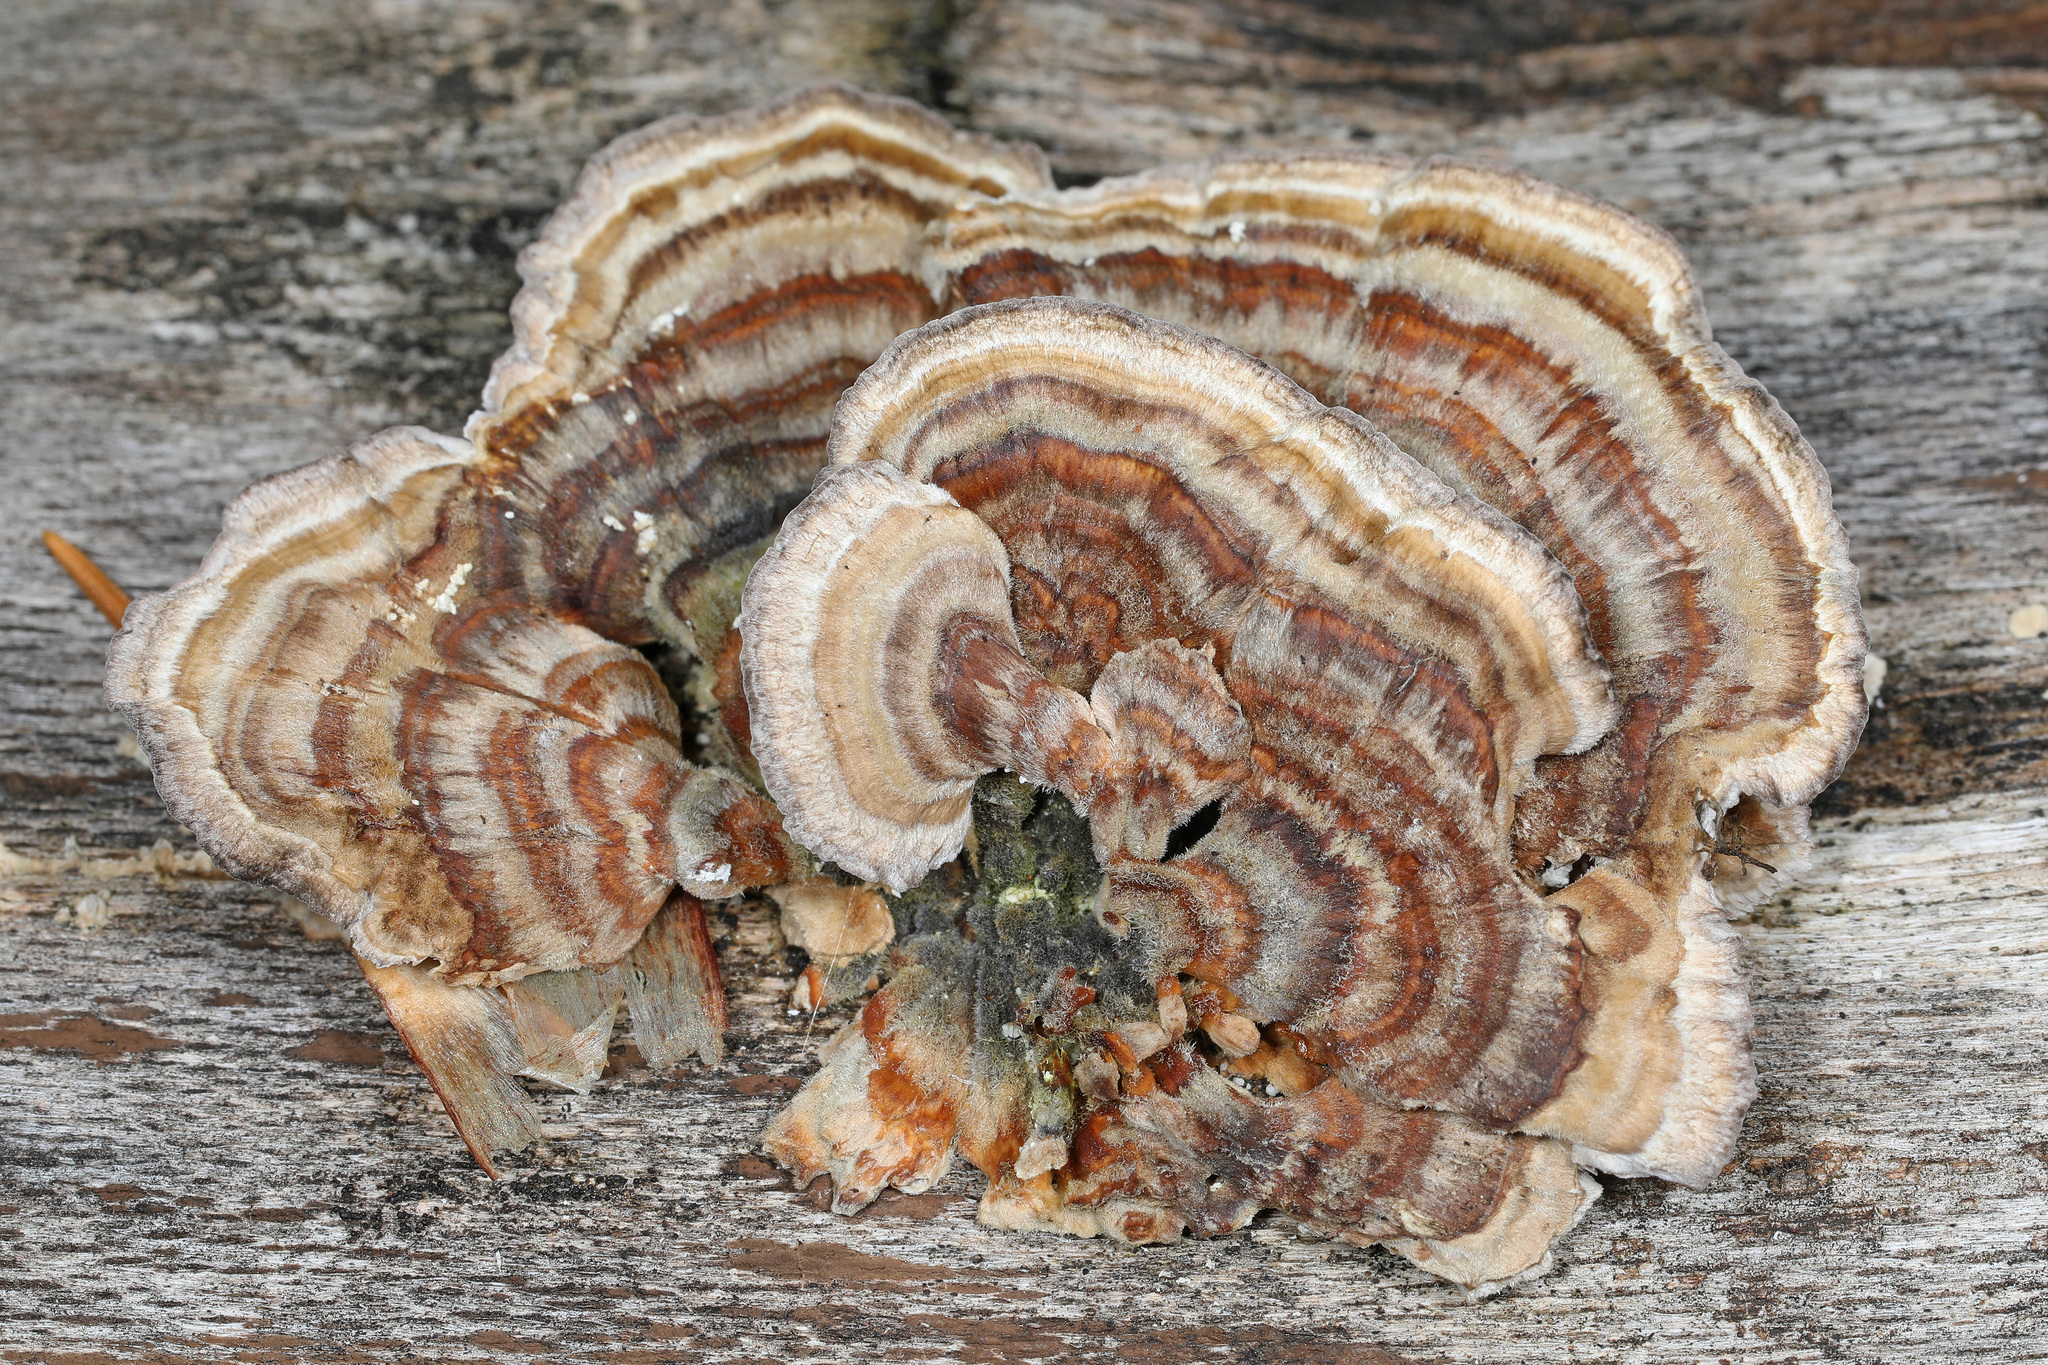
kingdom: Fungi
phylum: Basidiomycota
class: Agaricomycetes
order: Polyporales
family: Polyporaceae
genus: Trametes
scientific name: Trametes versicolor
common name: Turkeytail
